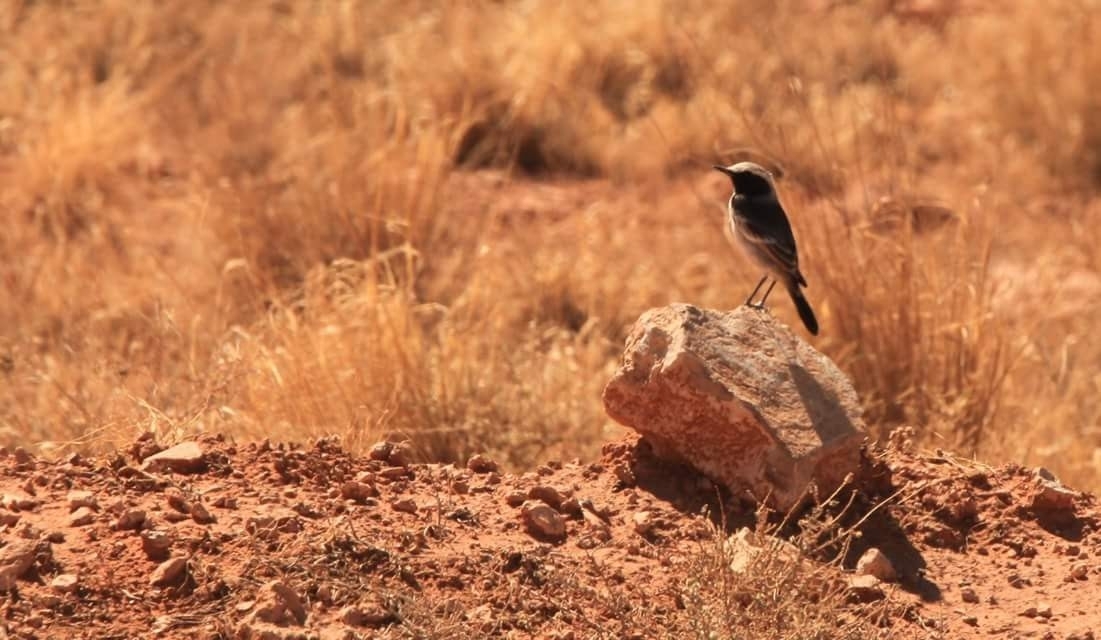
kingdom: Animalia
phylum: Chordata
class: Aves
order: Passeriformes
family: Muscicapidae
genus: Oenanthe
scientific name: Oenanthe moesta
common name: Red-rumped wheatear
